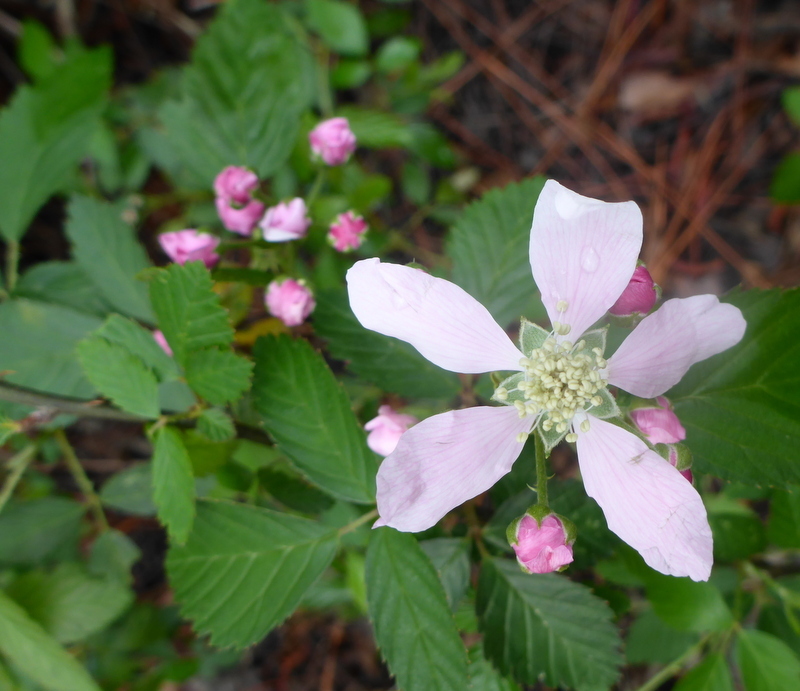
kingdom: Plantae
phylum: Tracheophyta
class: Magnoliopsida
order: Rosales
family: Rosaceae
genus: Rubus
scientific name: Rubus cuneifolius
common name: American bramble
